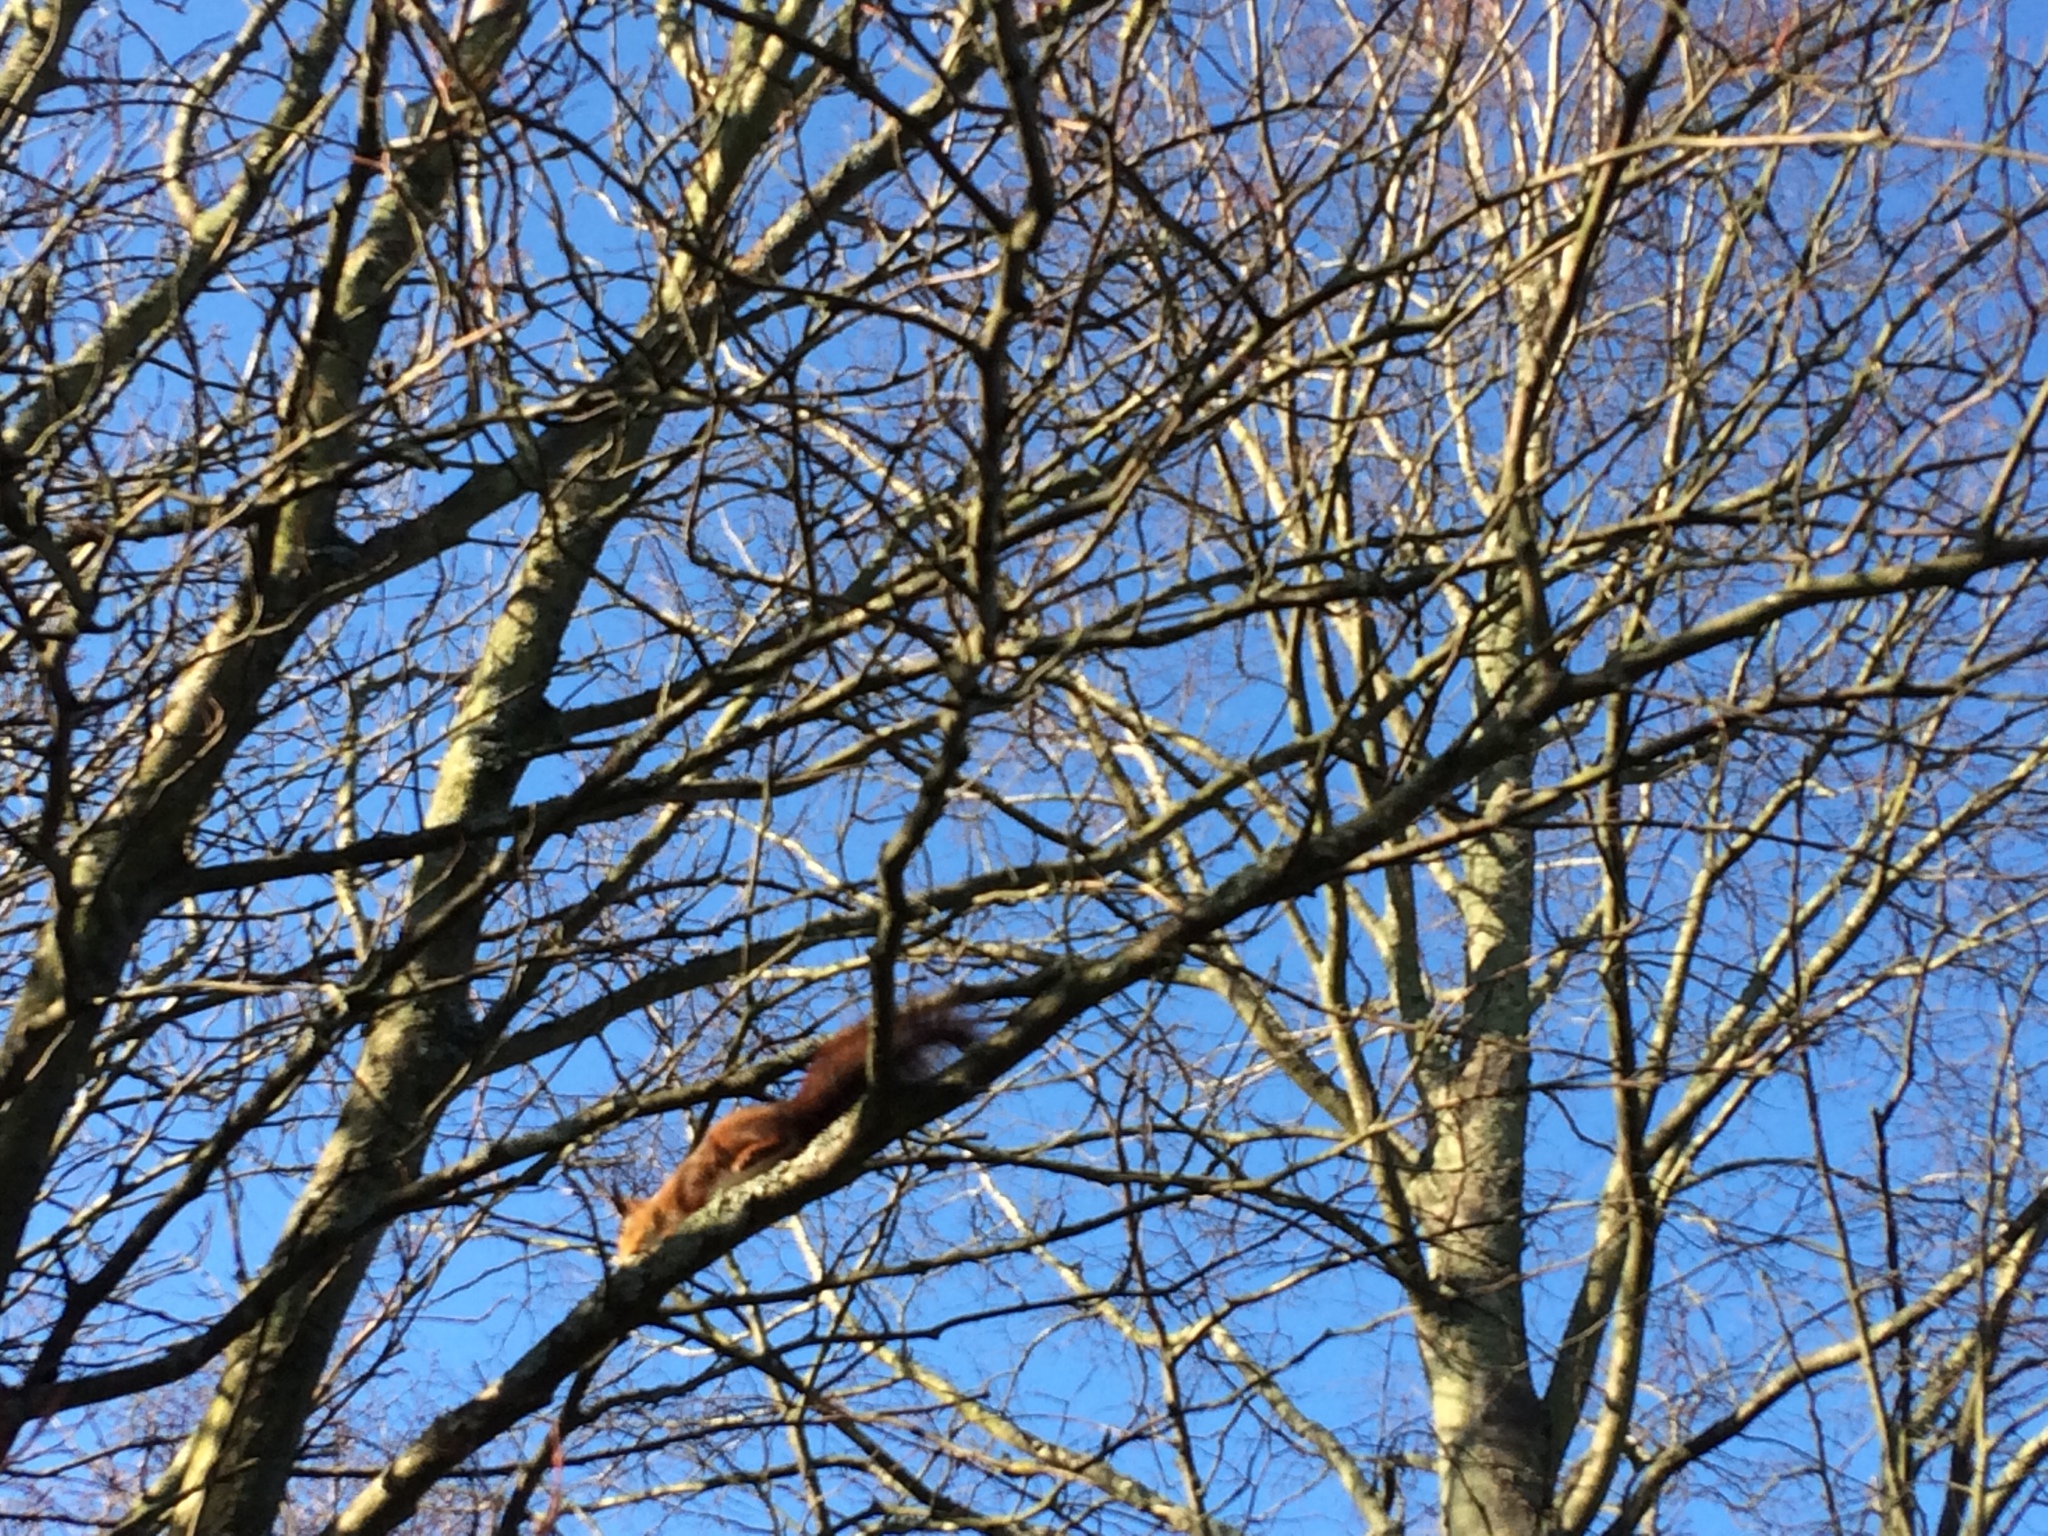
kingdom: Animalia
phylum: Chordata
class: Mammalia
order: Rodentia
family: Sciuridae
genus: Sciurus
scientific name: Sciurus vulgaris
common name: Eurasian red squirrel
